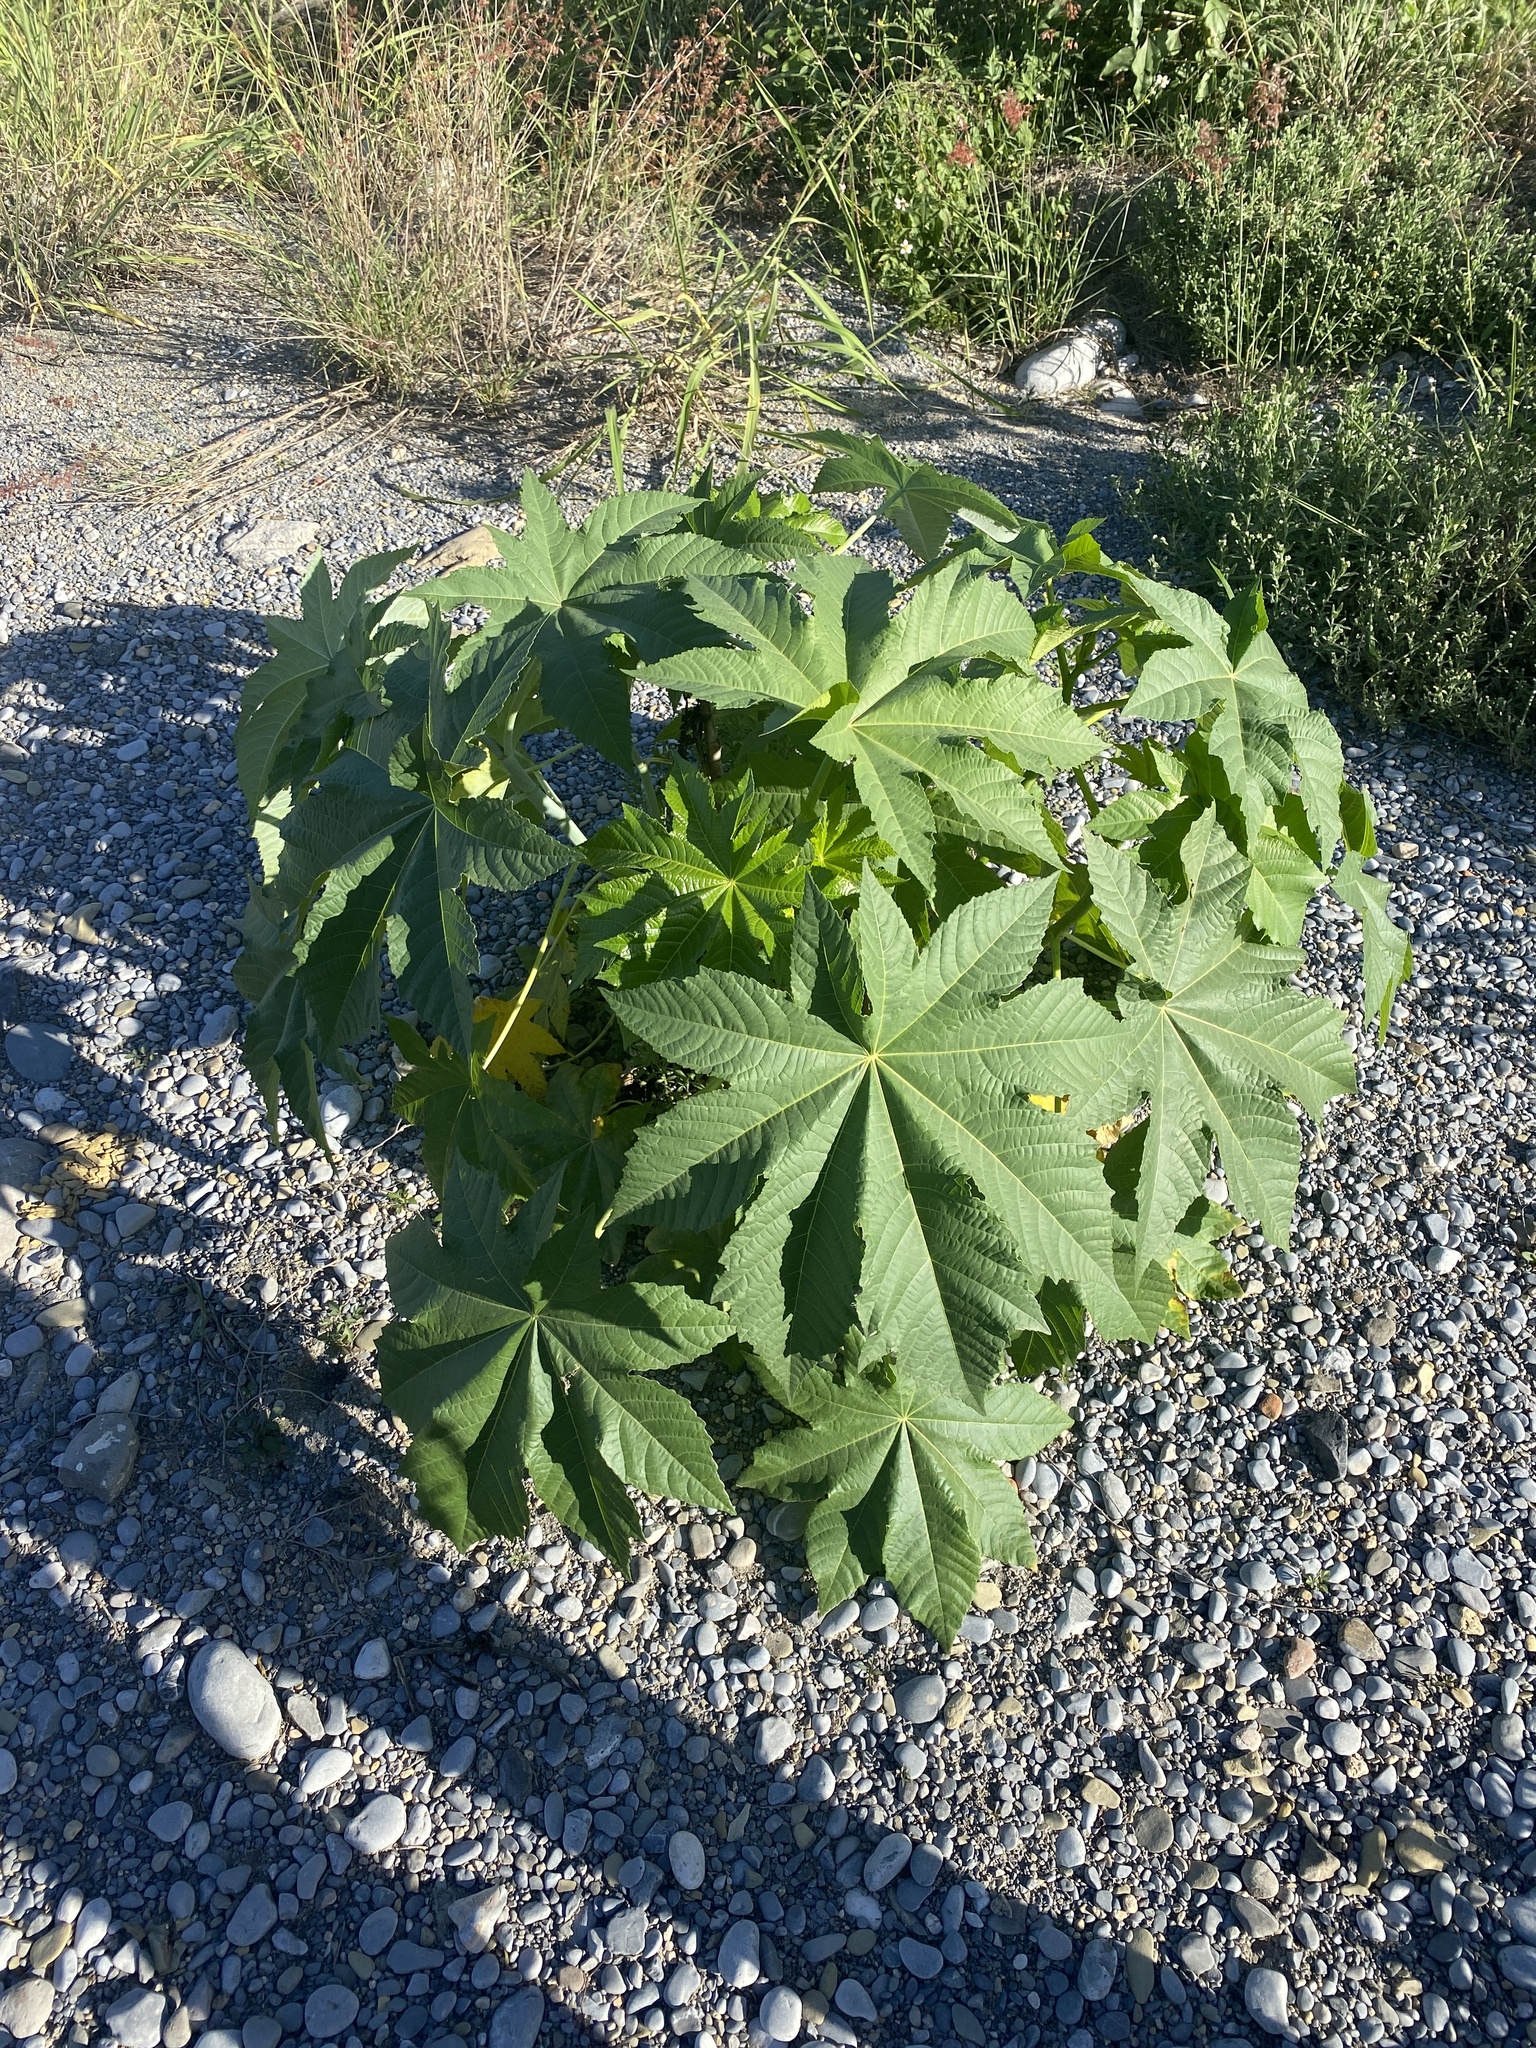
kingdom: Plantae
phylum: Tracheophyta
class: Magnoliopsida
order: Malpighiales
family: Euphorbiaceae
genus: Ricinus
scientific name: Ricinus communis
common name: Castor-oil-plant
